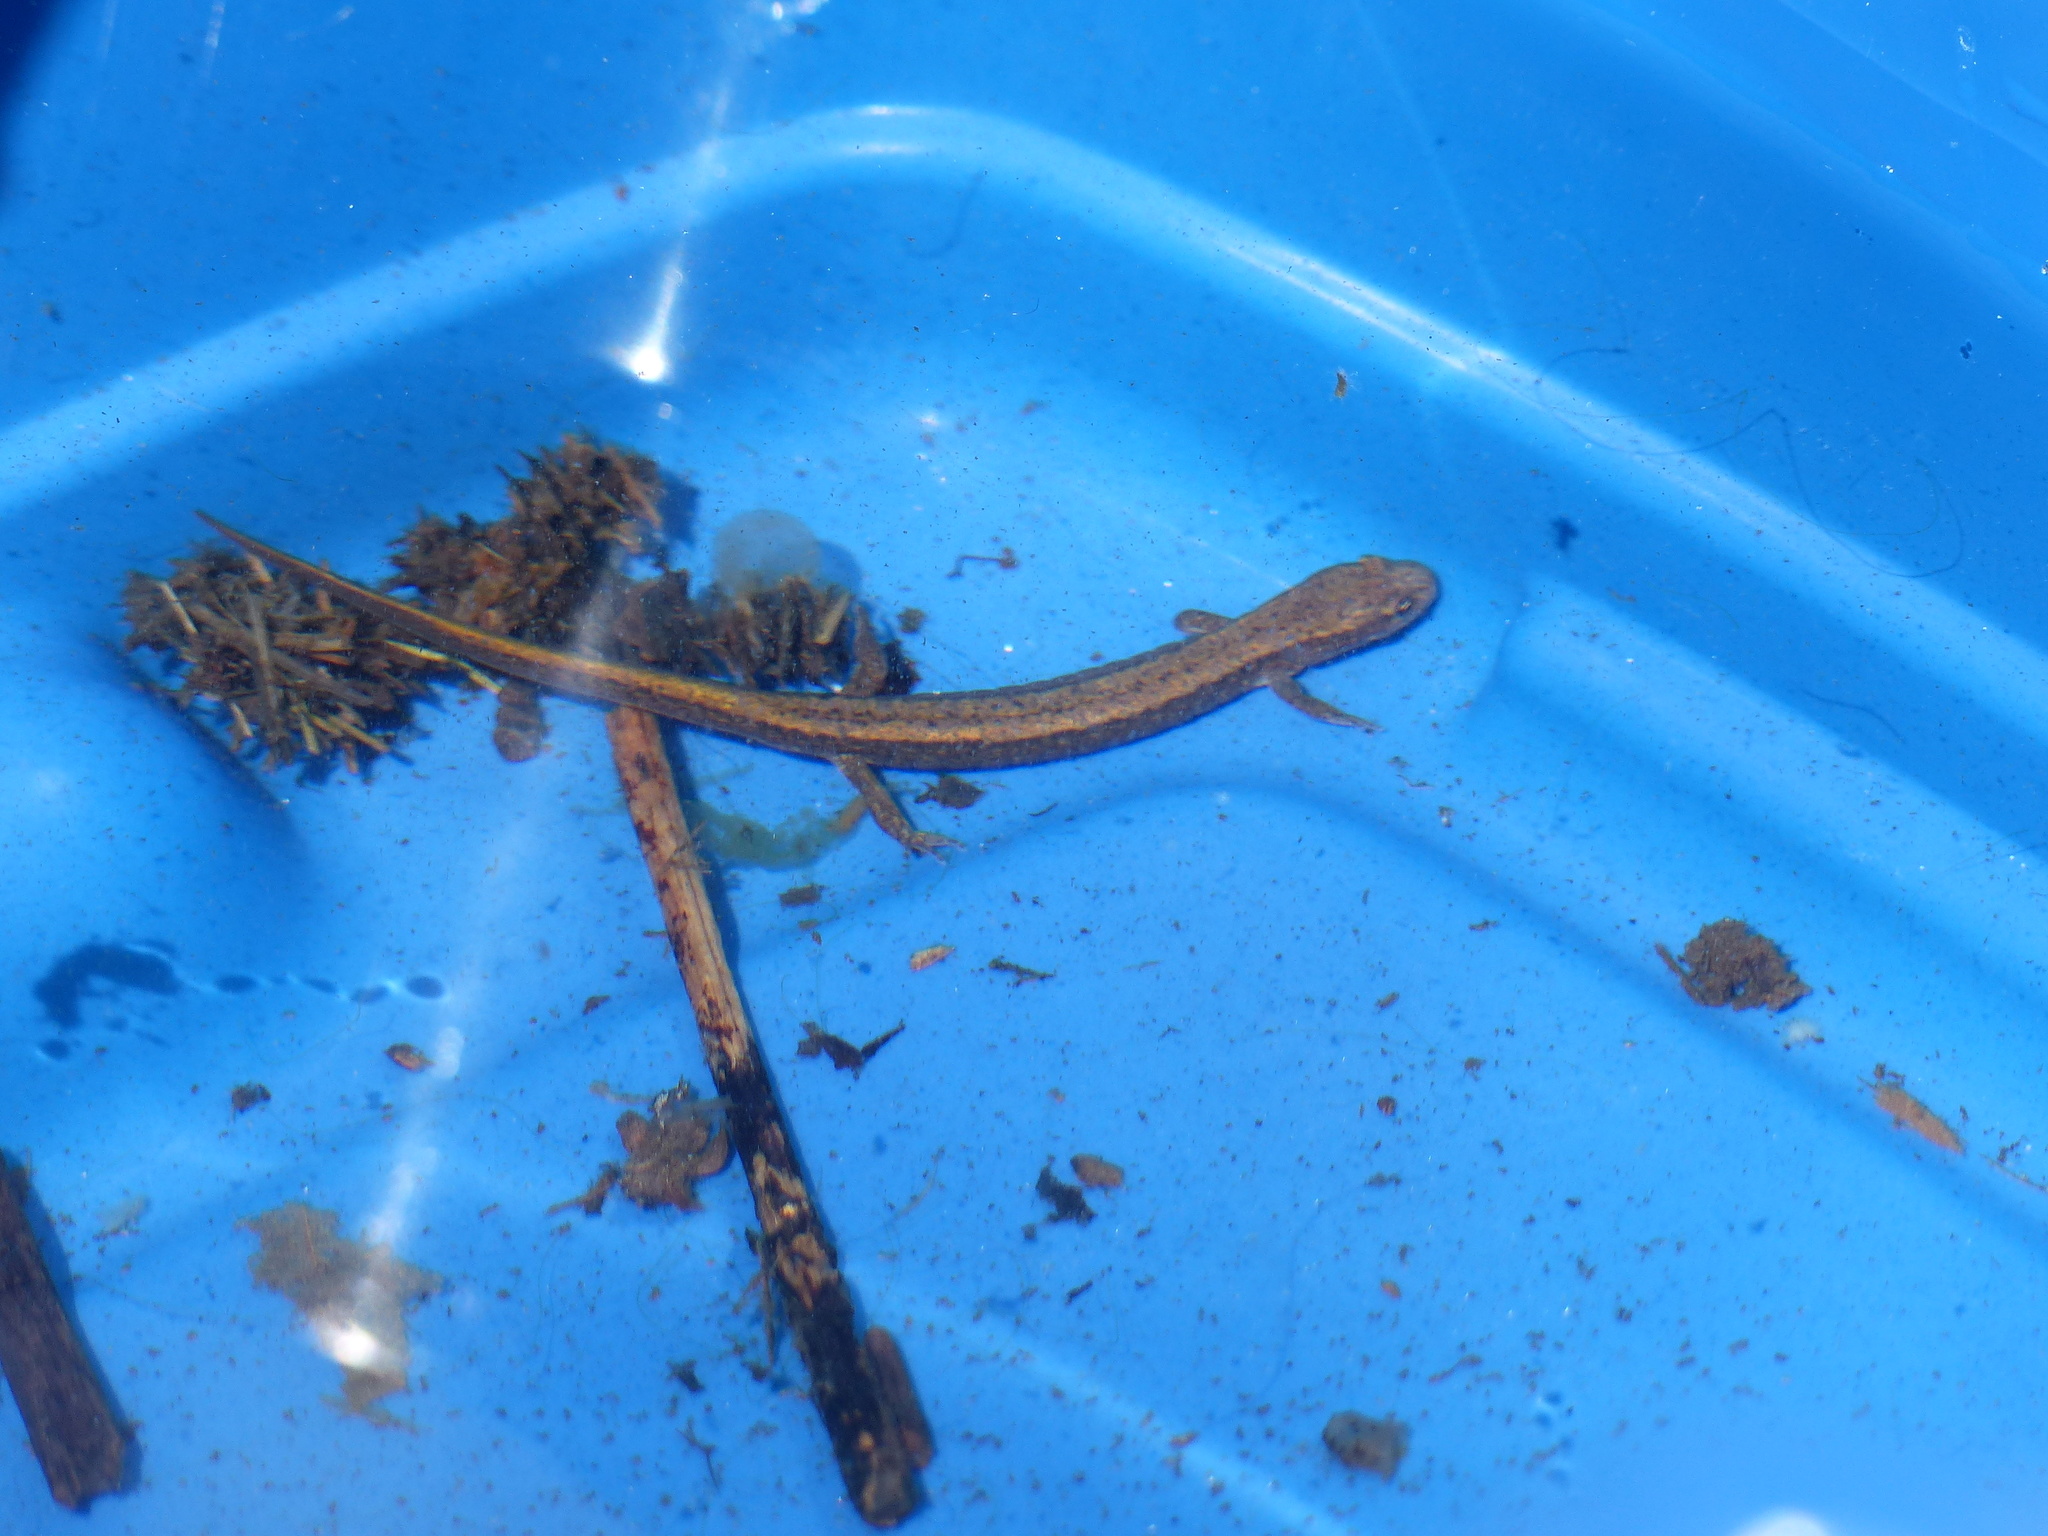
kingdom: Animalia
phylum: Chordata
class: Amphibia
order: Caudata
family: Plethodontidae
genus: Eurycea
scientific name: Eurycea bislineata
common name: Northern two-lined salamander
